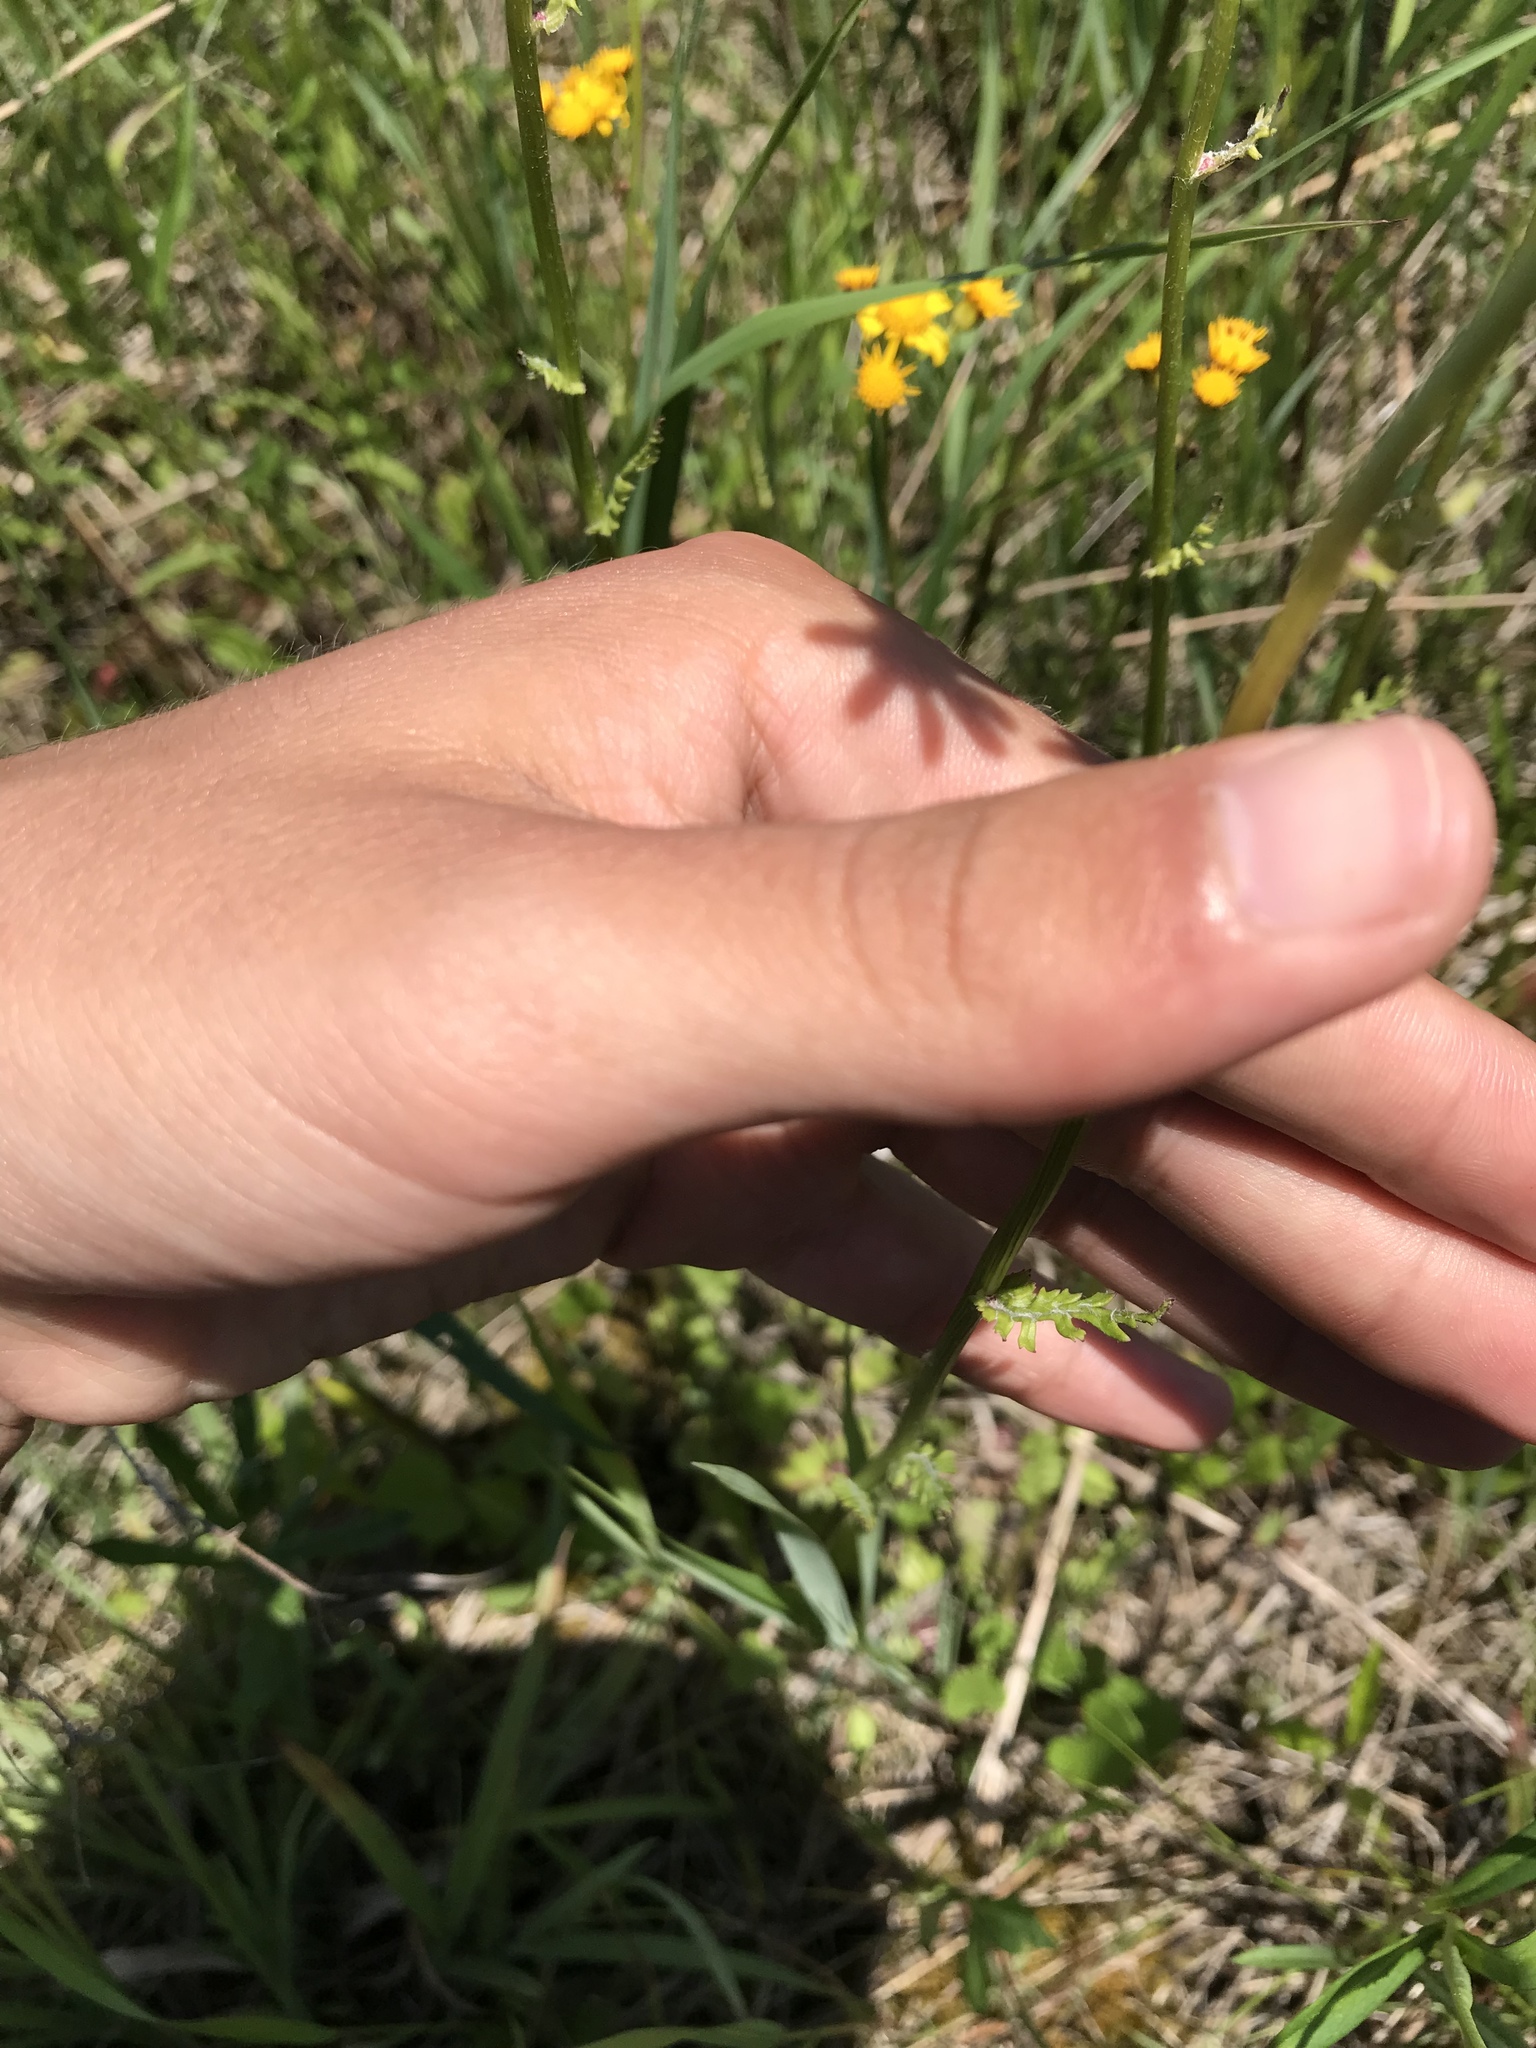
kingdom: Plantae
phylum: Tracheophyta
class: Magnoliopsida
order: Asterales
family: Asteraceae
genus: Packera
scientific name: Packera aurea
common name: Golden groundsel
